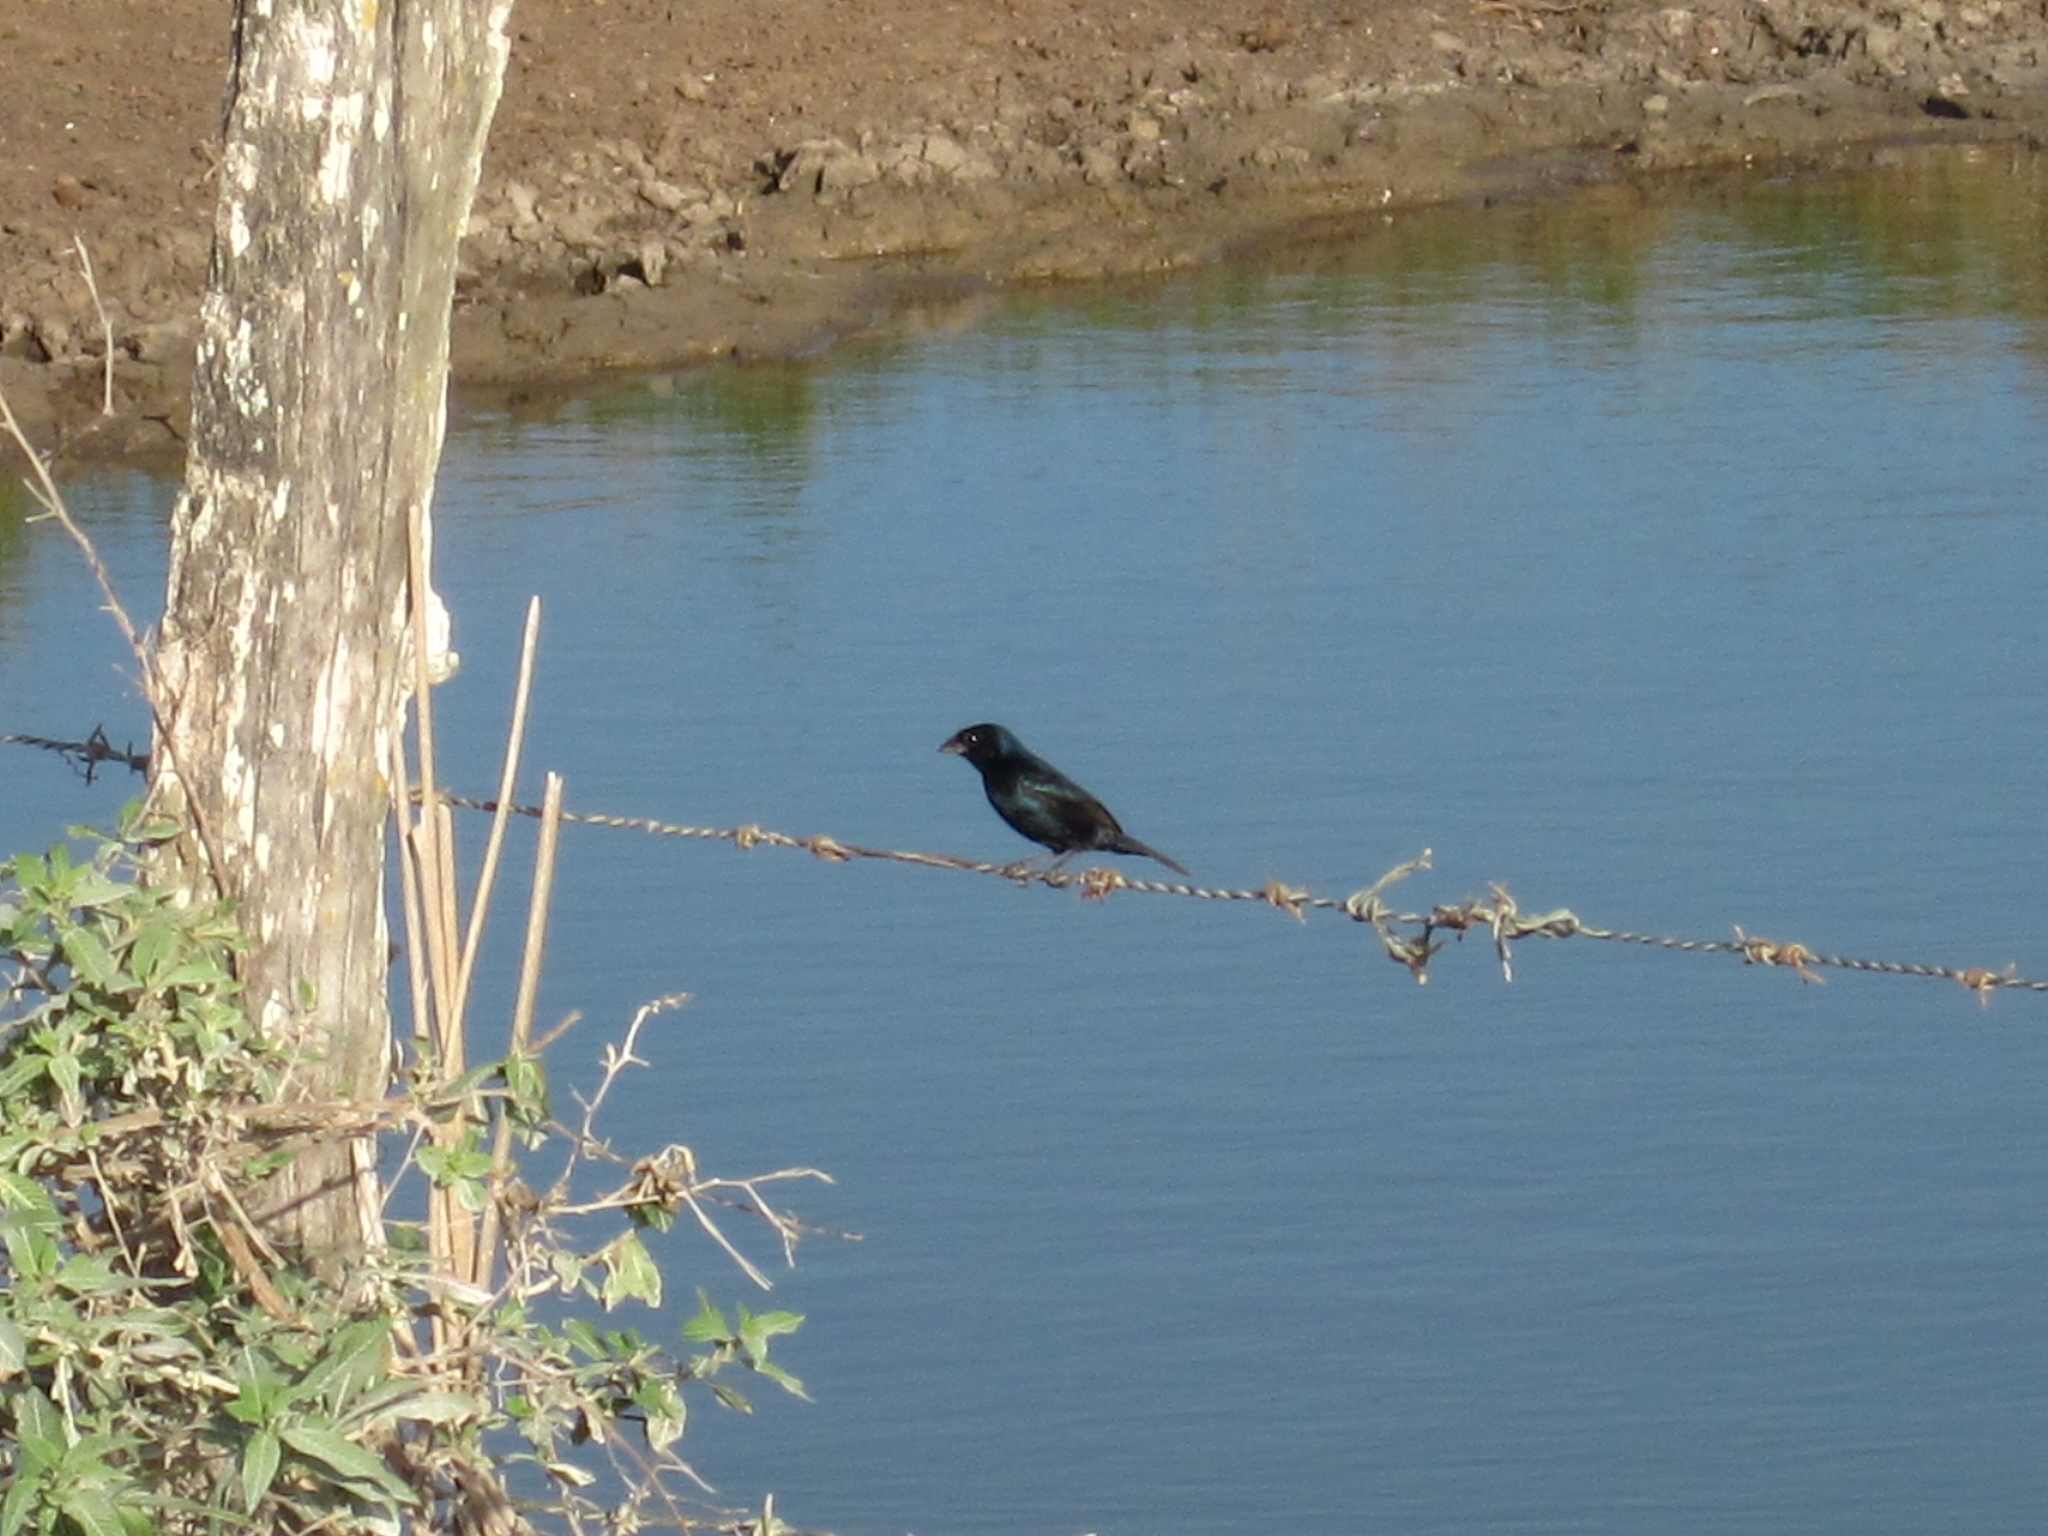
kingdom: Animalia
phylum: Chordata
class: Aves
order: Passeriformes
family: Thraupidae
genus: Volatinia
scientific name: Volatinia jacarina
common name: Blue-black grassquit
